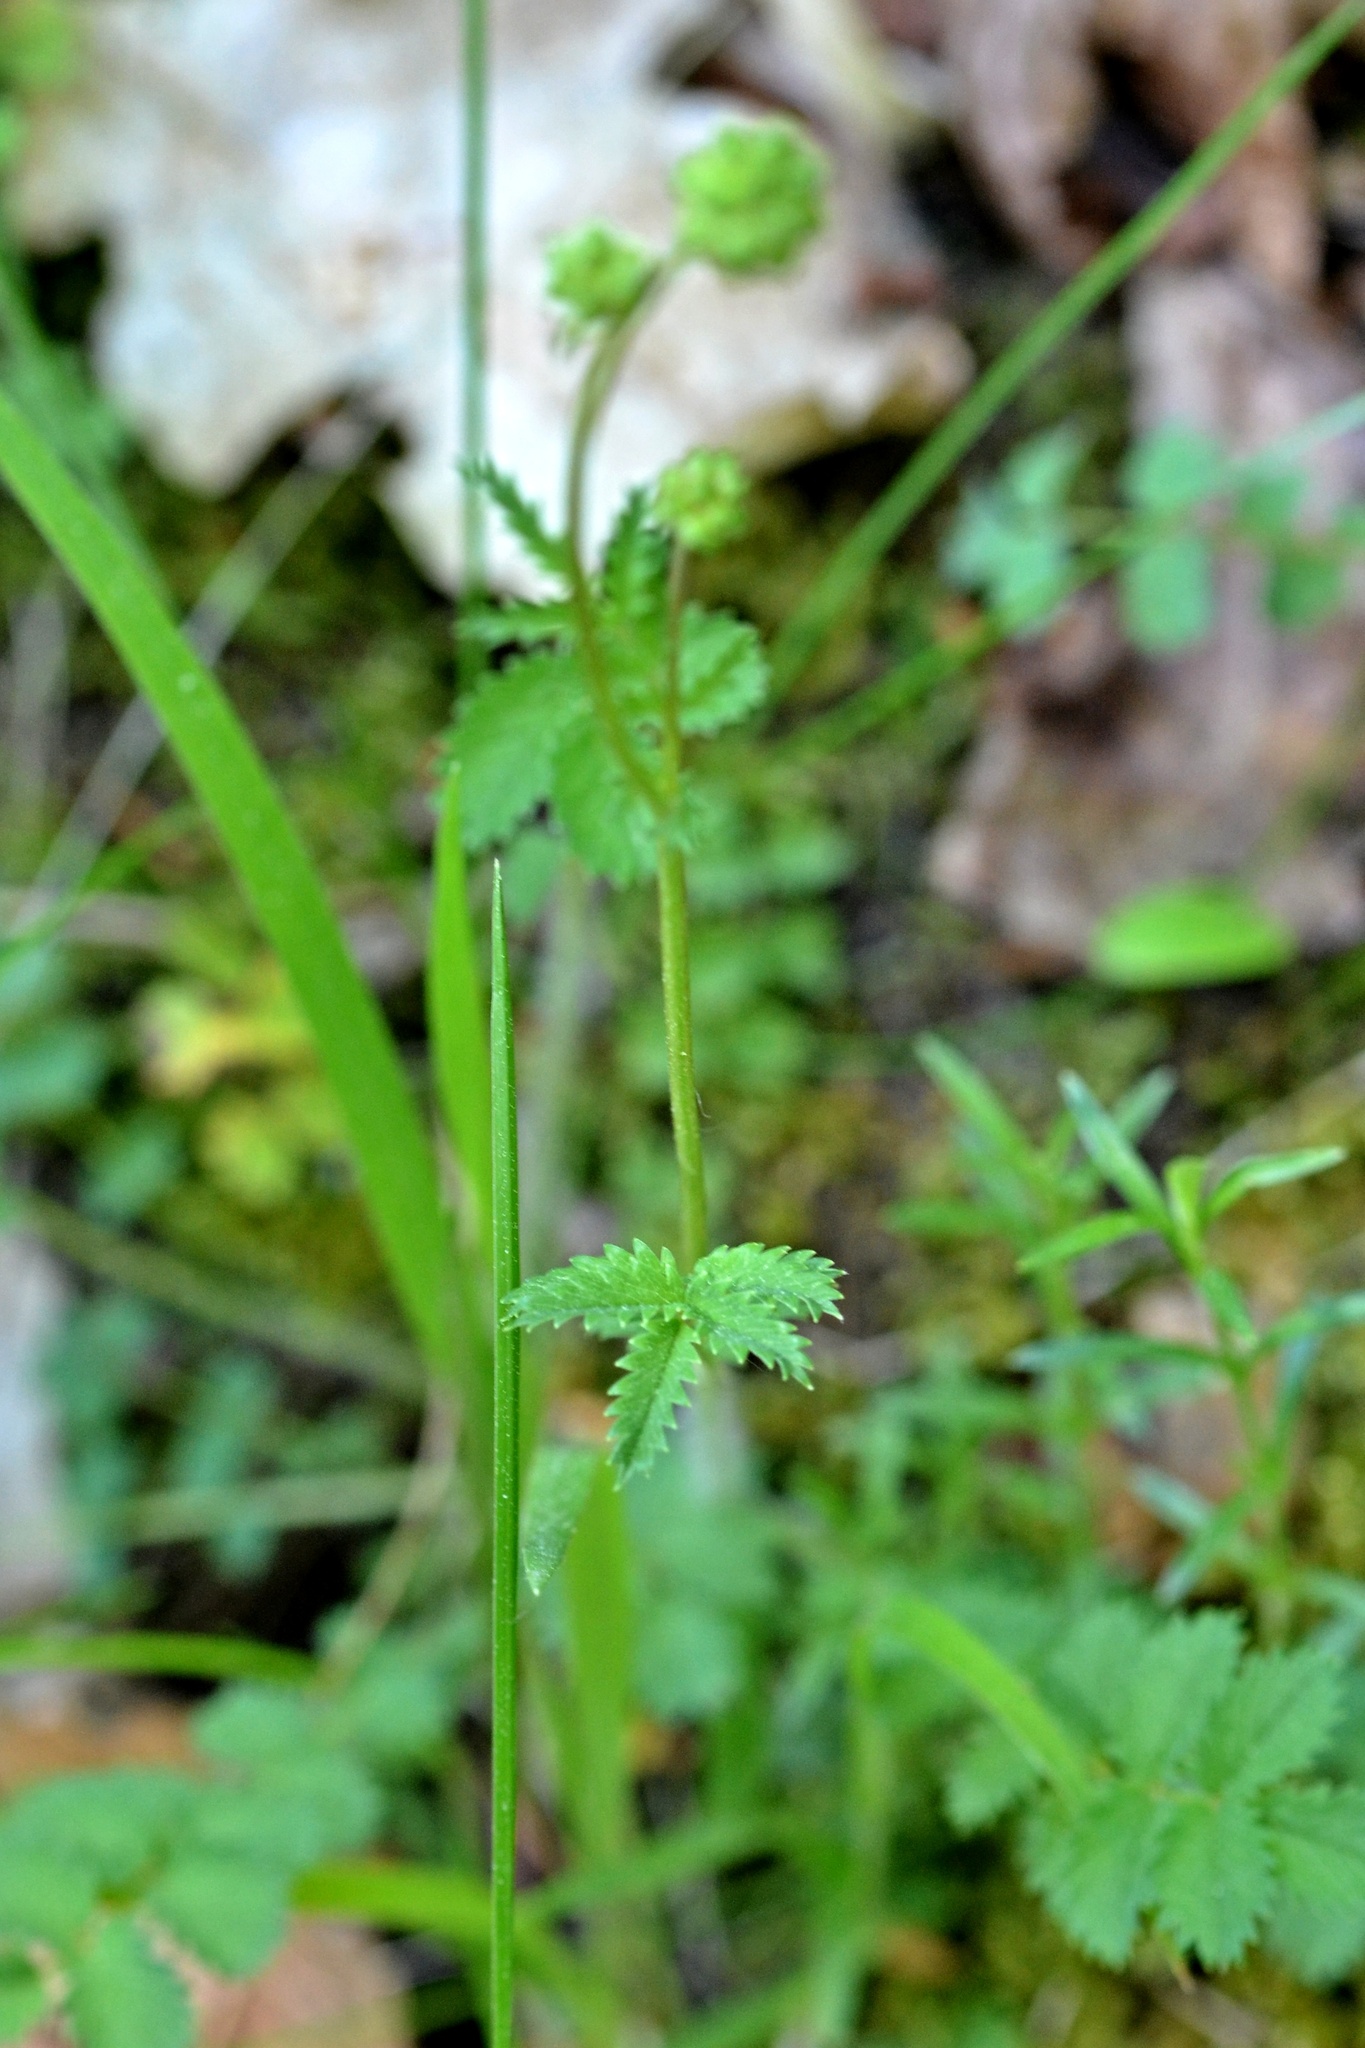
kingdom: Plantae
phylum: Tracheophyta
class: Magnoliopsida
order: Rosales
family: Rosaceae
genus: Poterium
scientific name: Poterium sanguisorba
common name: Salad burnet
